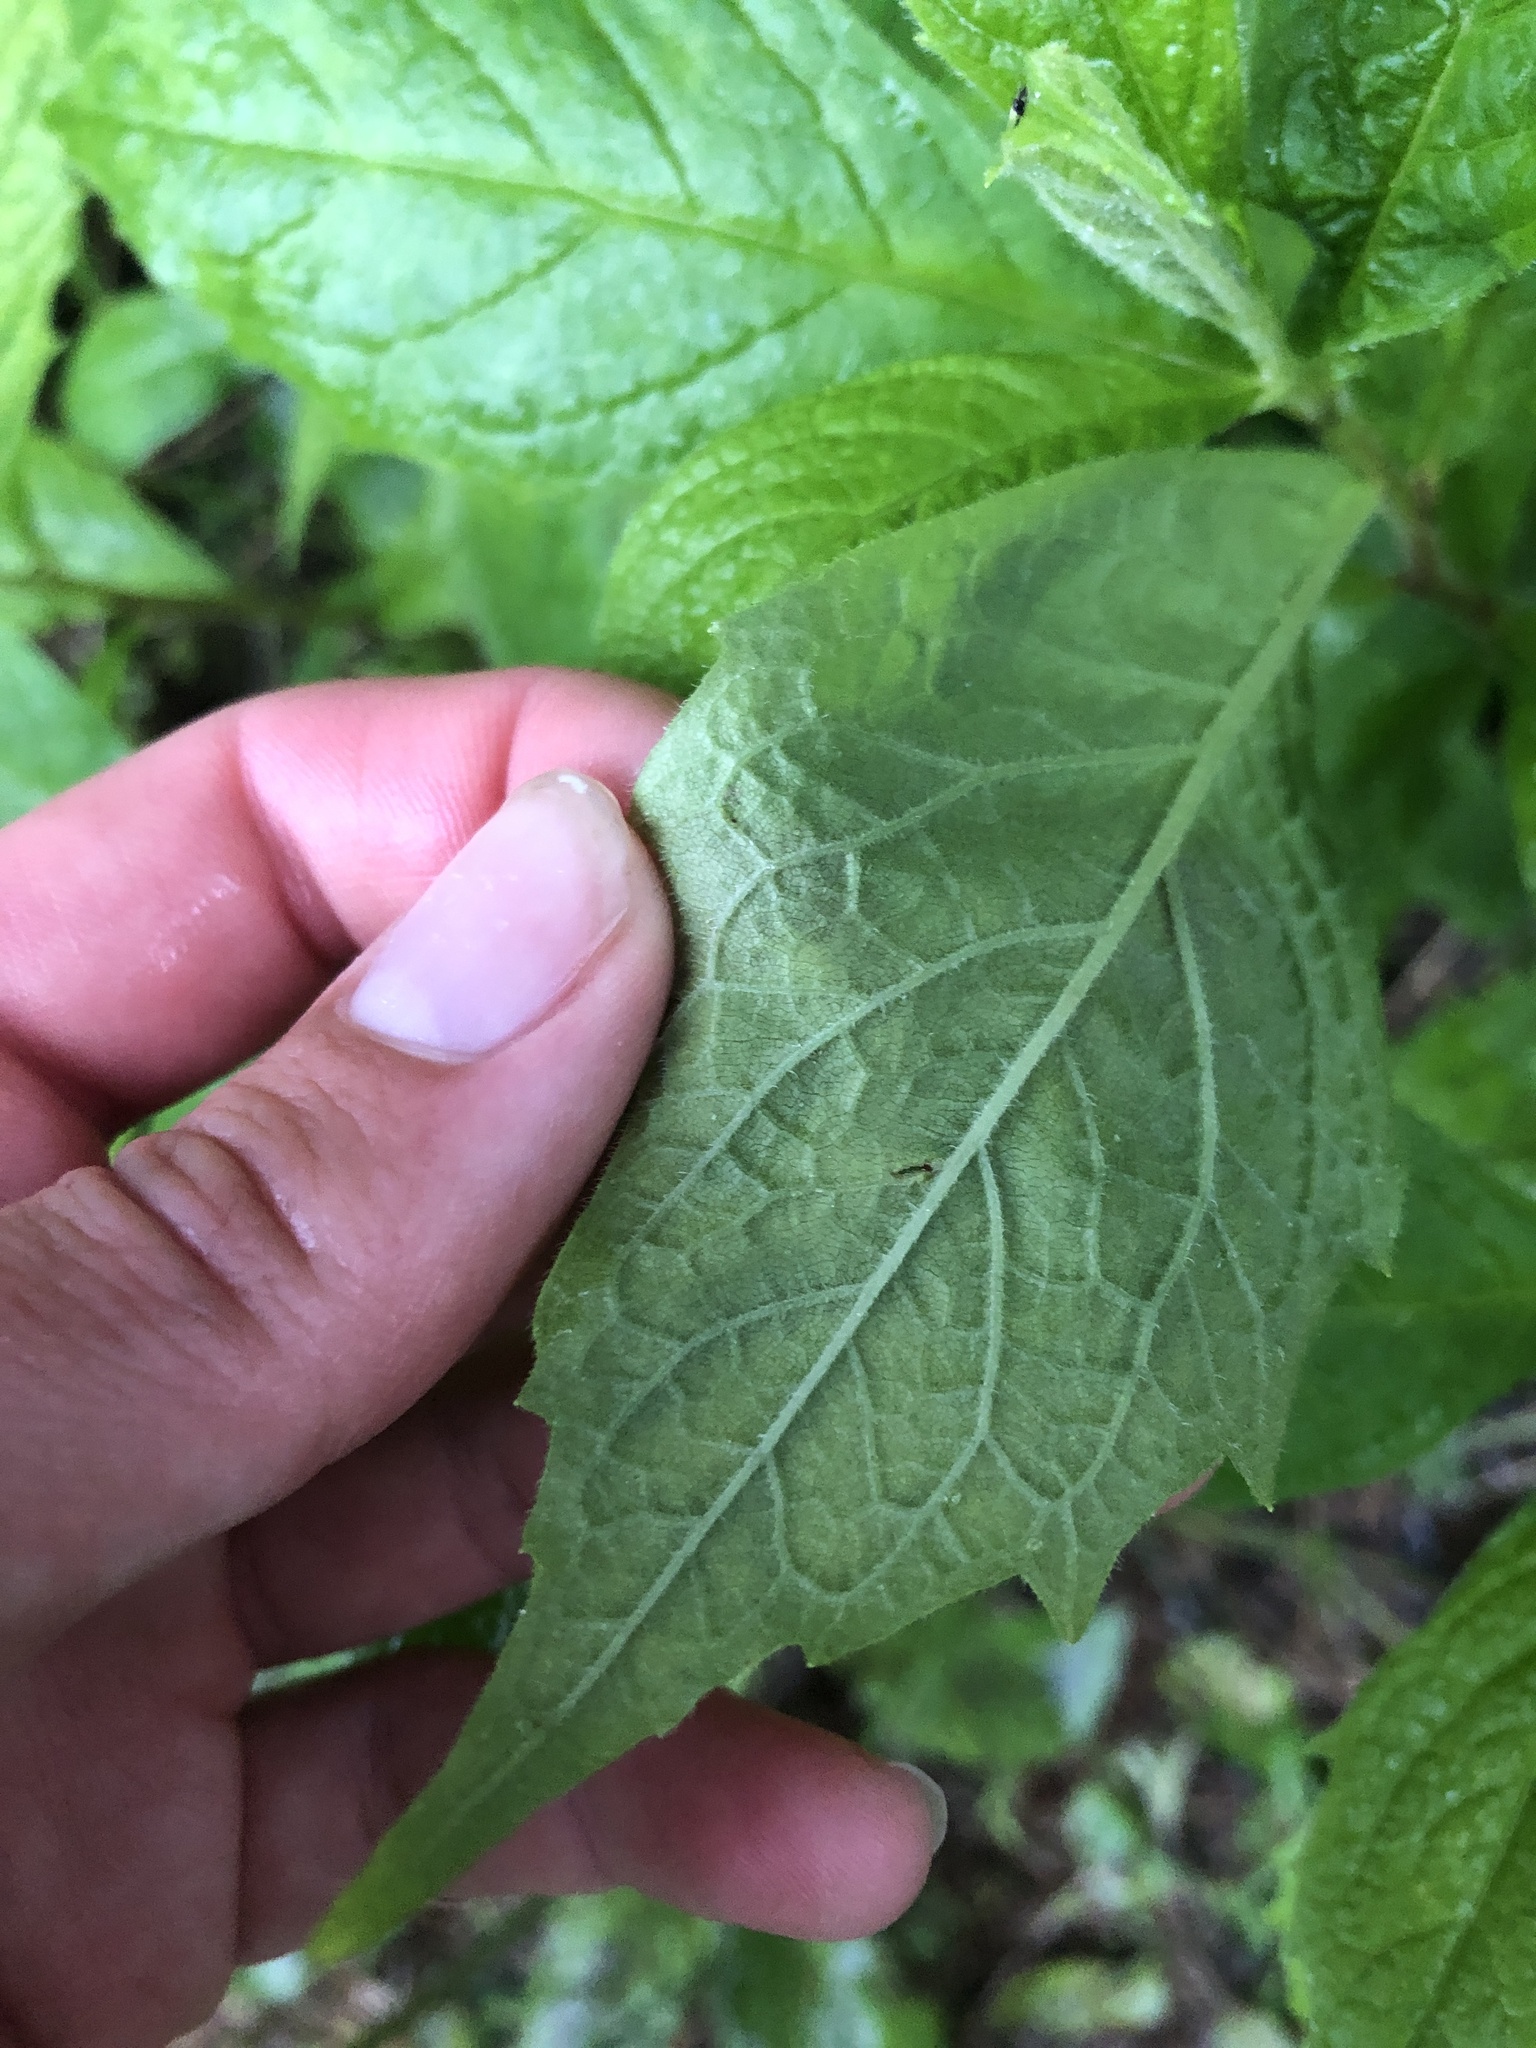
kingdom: Plantae
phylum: Tracheophyta
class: Magnoliopsida
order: Asterales
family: Asteraceae
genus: Oclemena
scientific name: Oclemena acuminata
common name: Mountain aster
